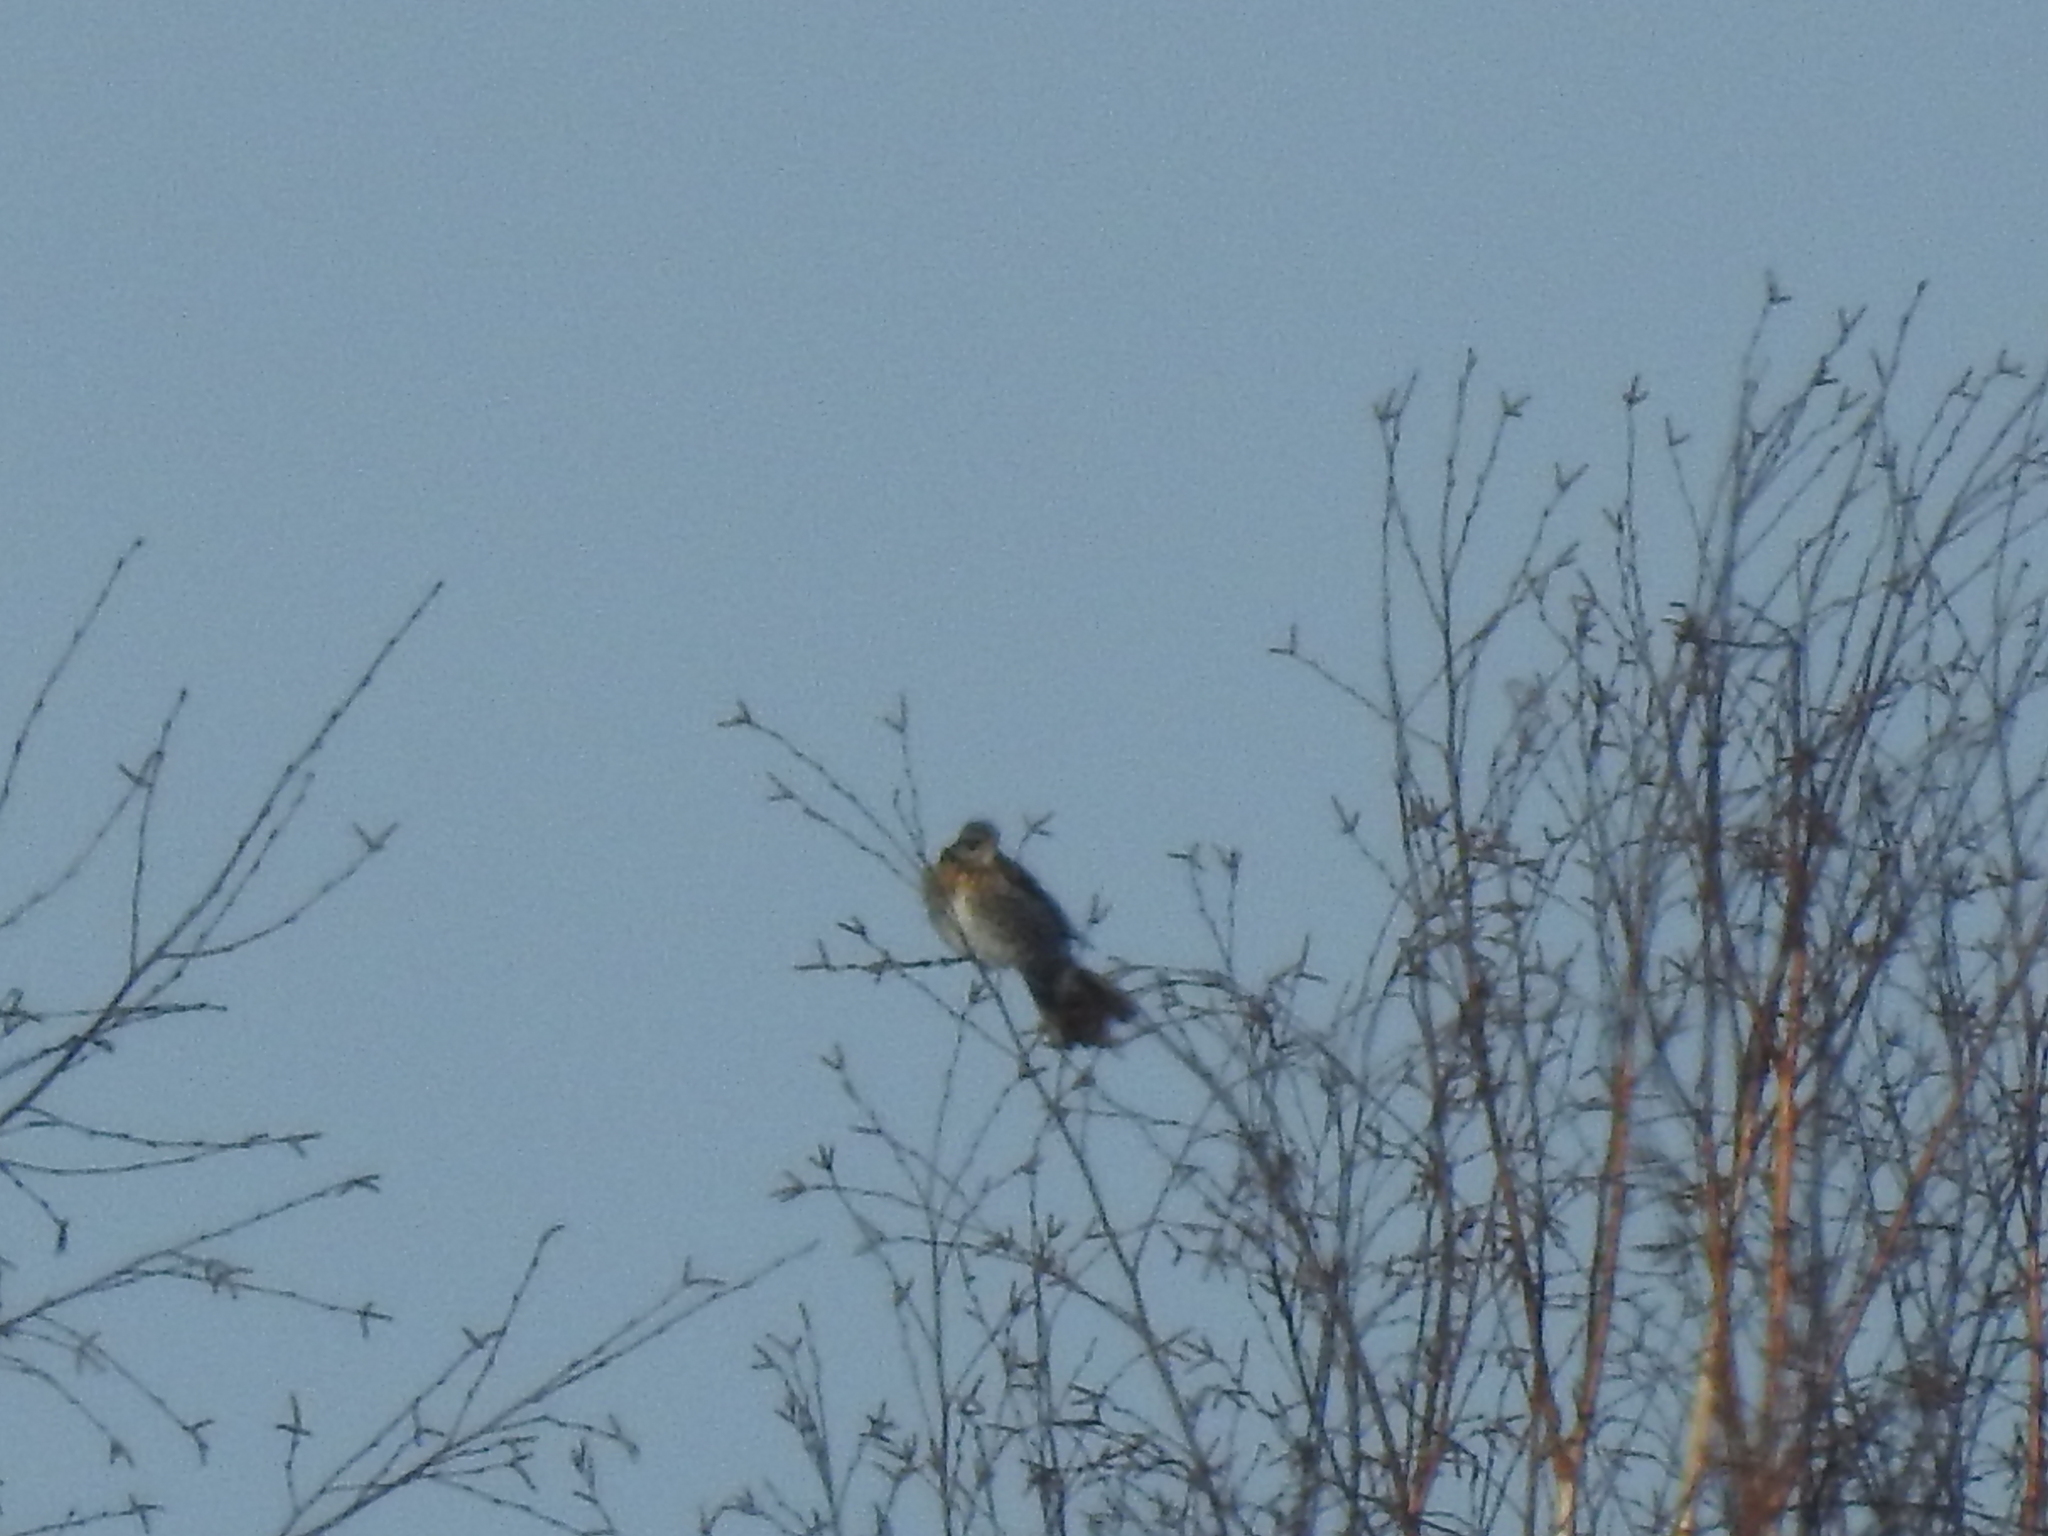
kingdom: Animalia
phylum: Chordata
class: Aves
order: Passeriformes
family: Turdidae
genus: Turdus
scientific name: Turdus pilaris
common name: Fieldfare
